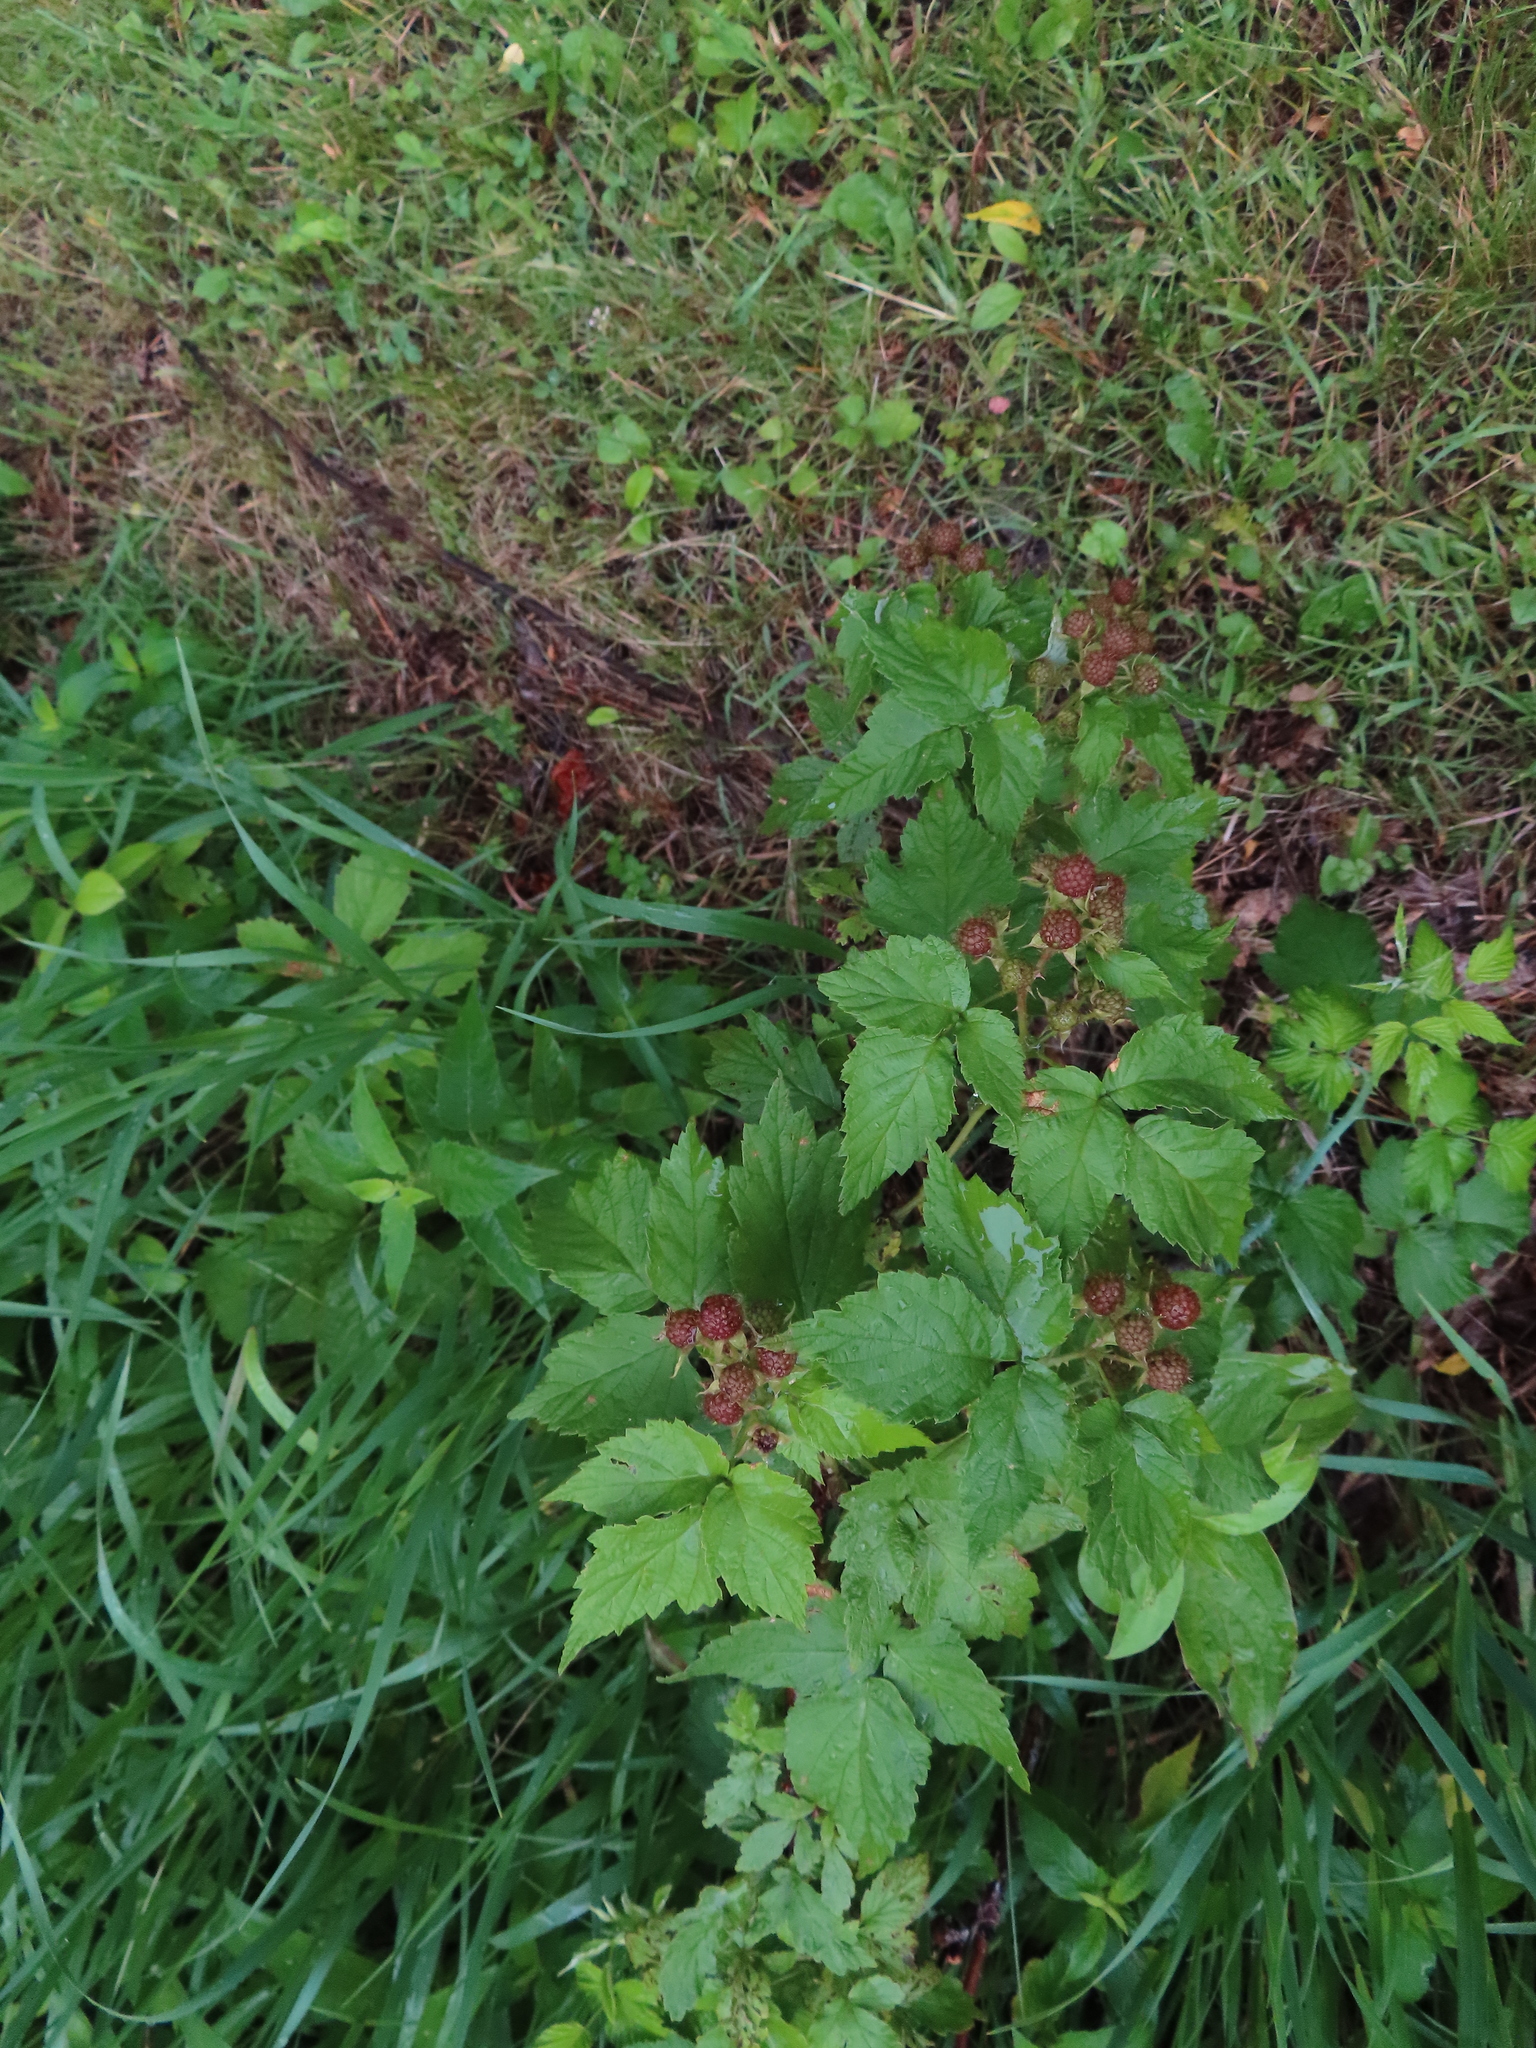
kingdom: Plantae
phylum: Tracheophyta
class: Magnoliopsida
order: Rosales
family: Rosaceae
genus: Rubus
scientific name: Rubus occidentalis
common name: Black raspberry
